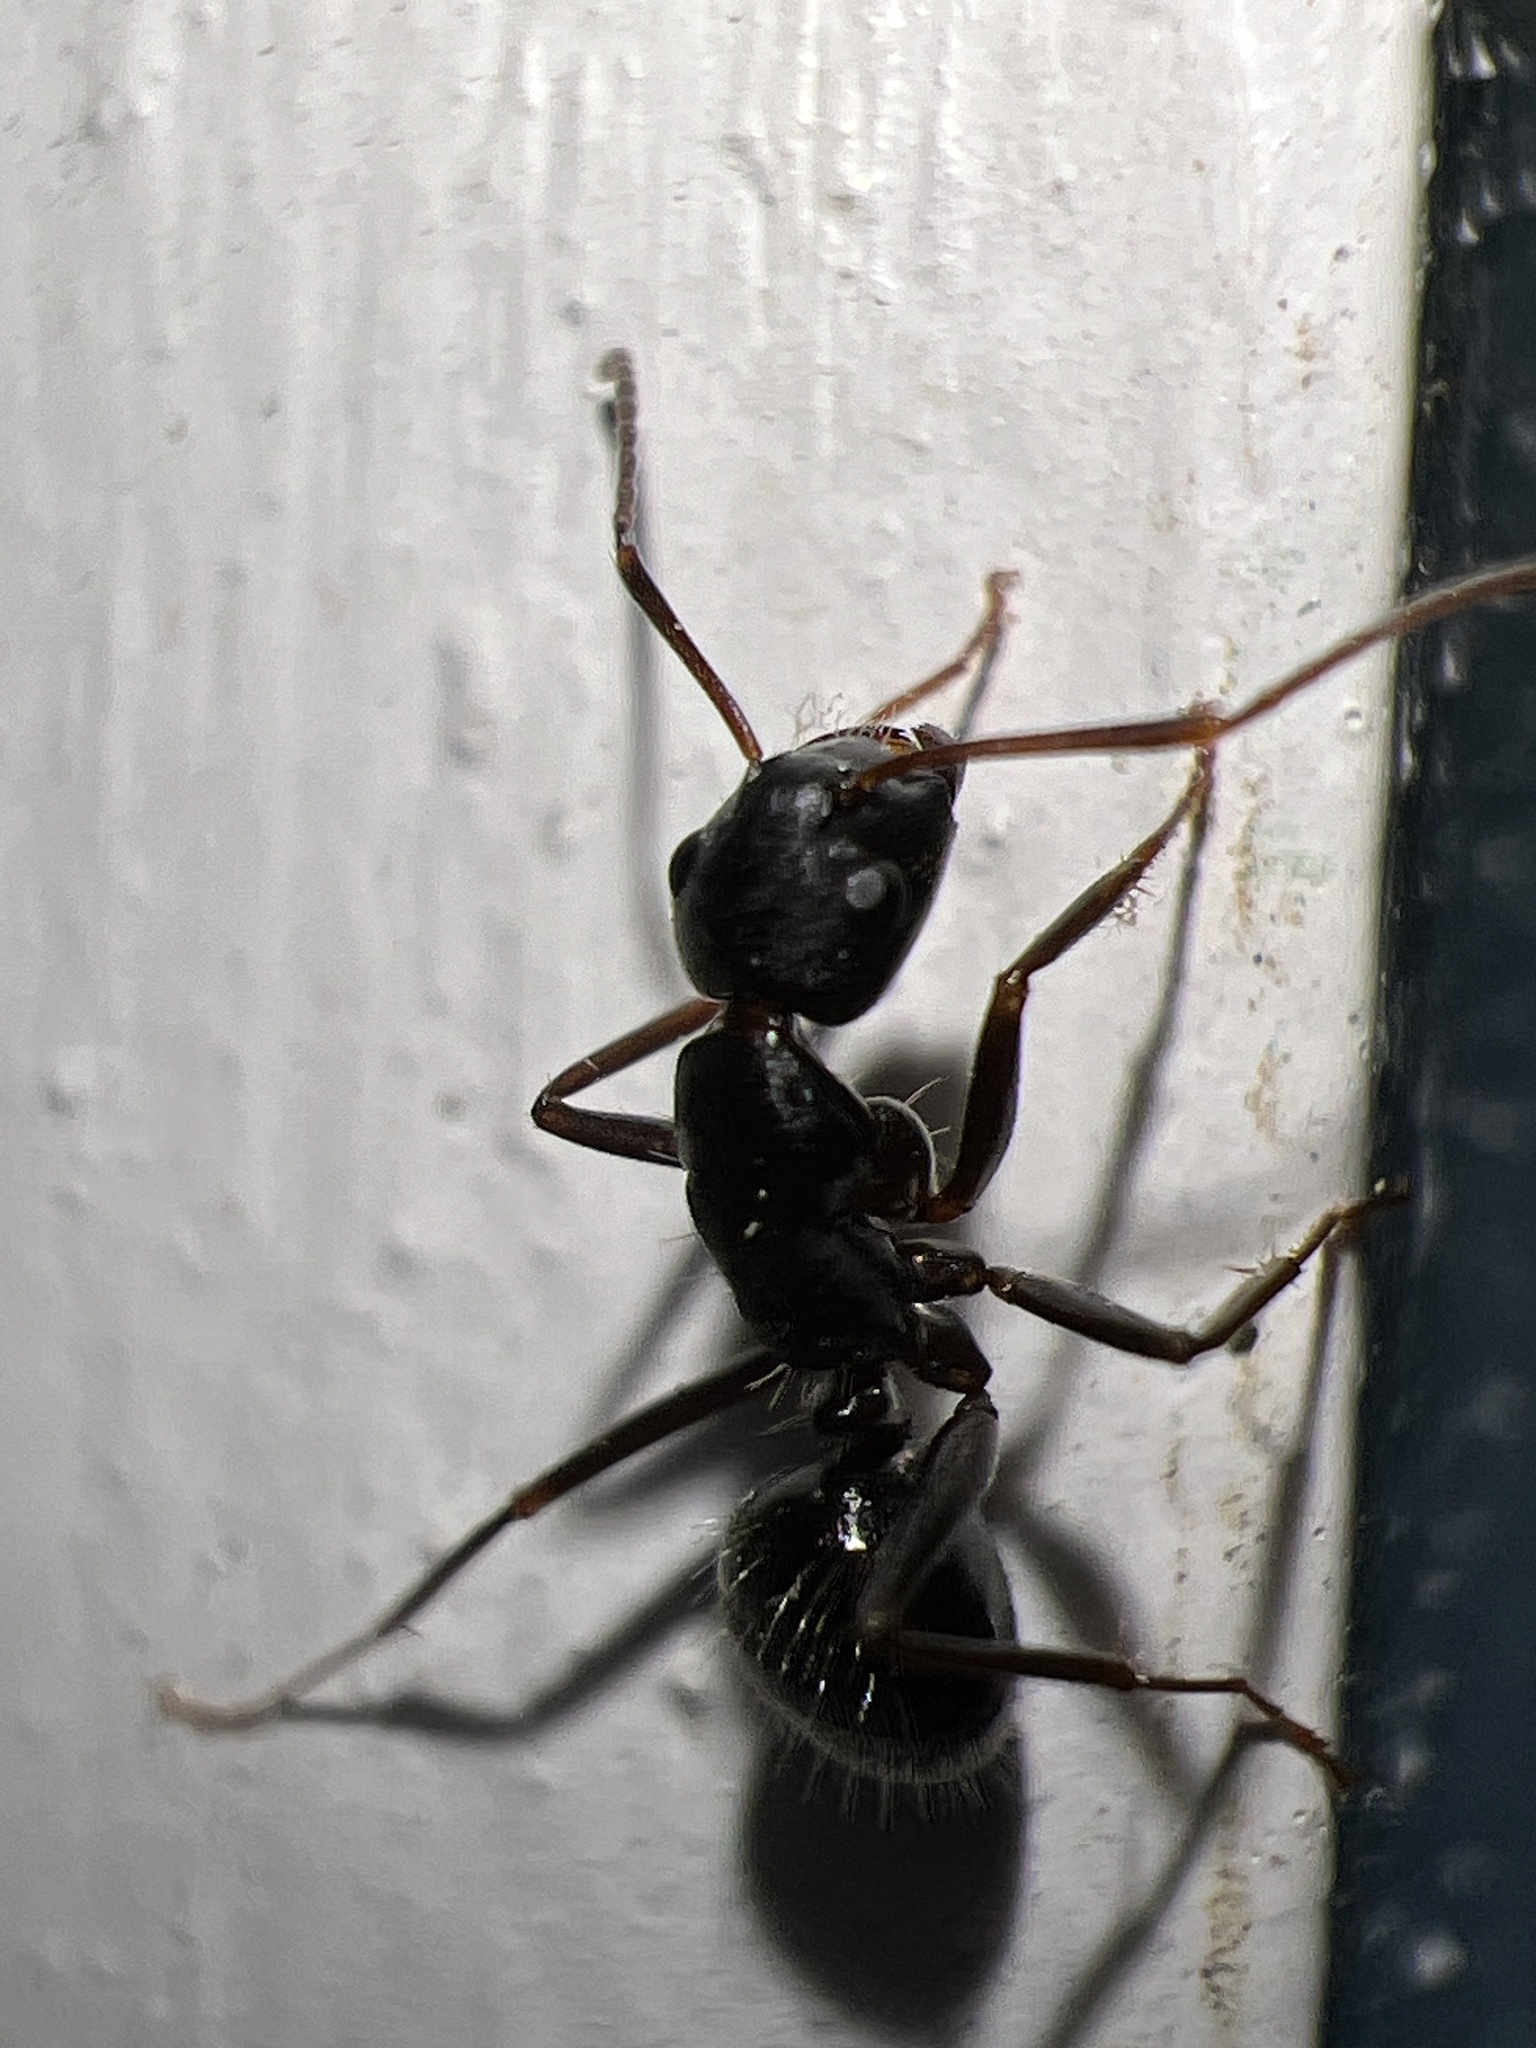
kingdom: Animalia
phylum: Arthropoda
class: Insecta
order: Hymenoptera
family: Formicidae
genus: Camponotus
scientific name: Camponotus pennsylvanicus
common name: Black carpenter ant
